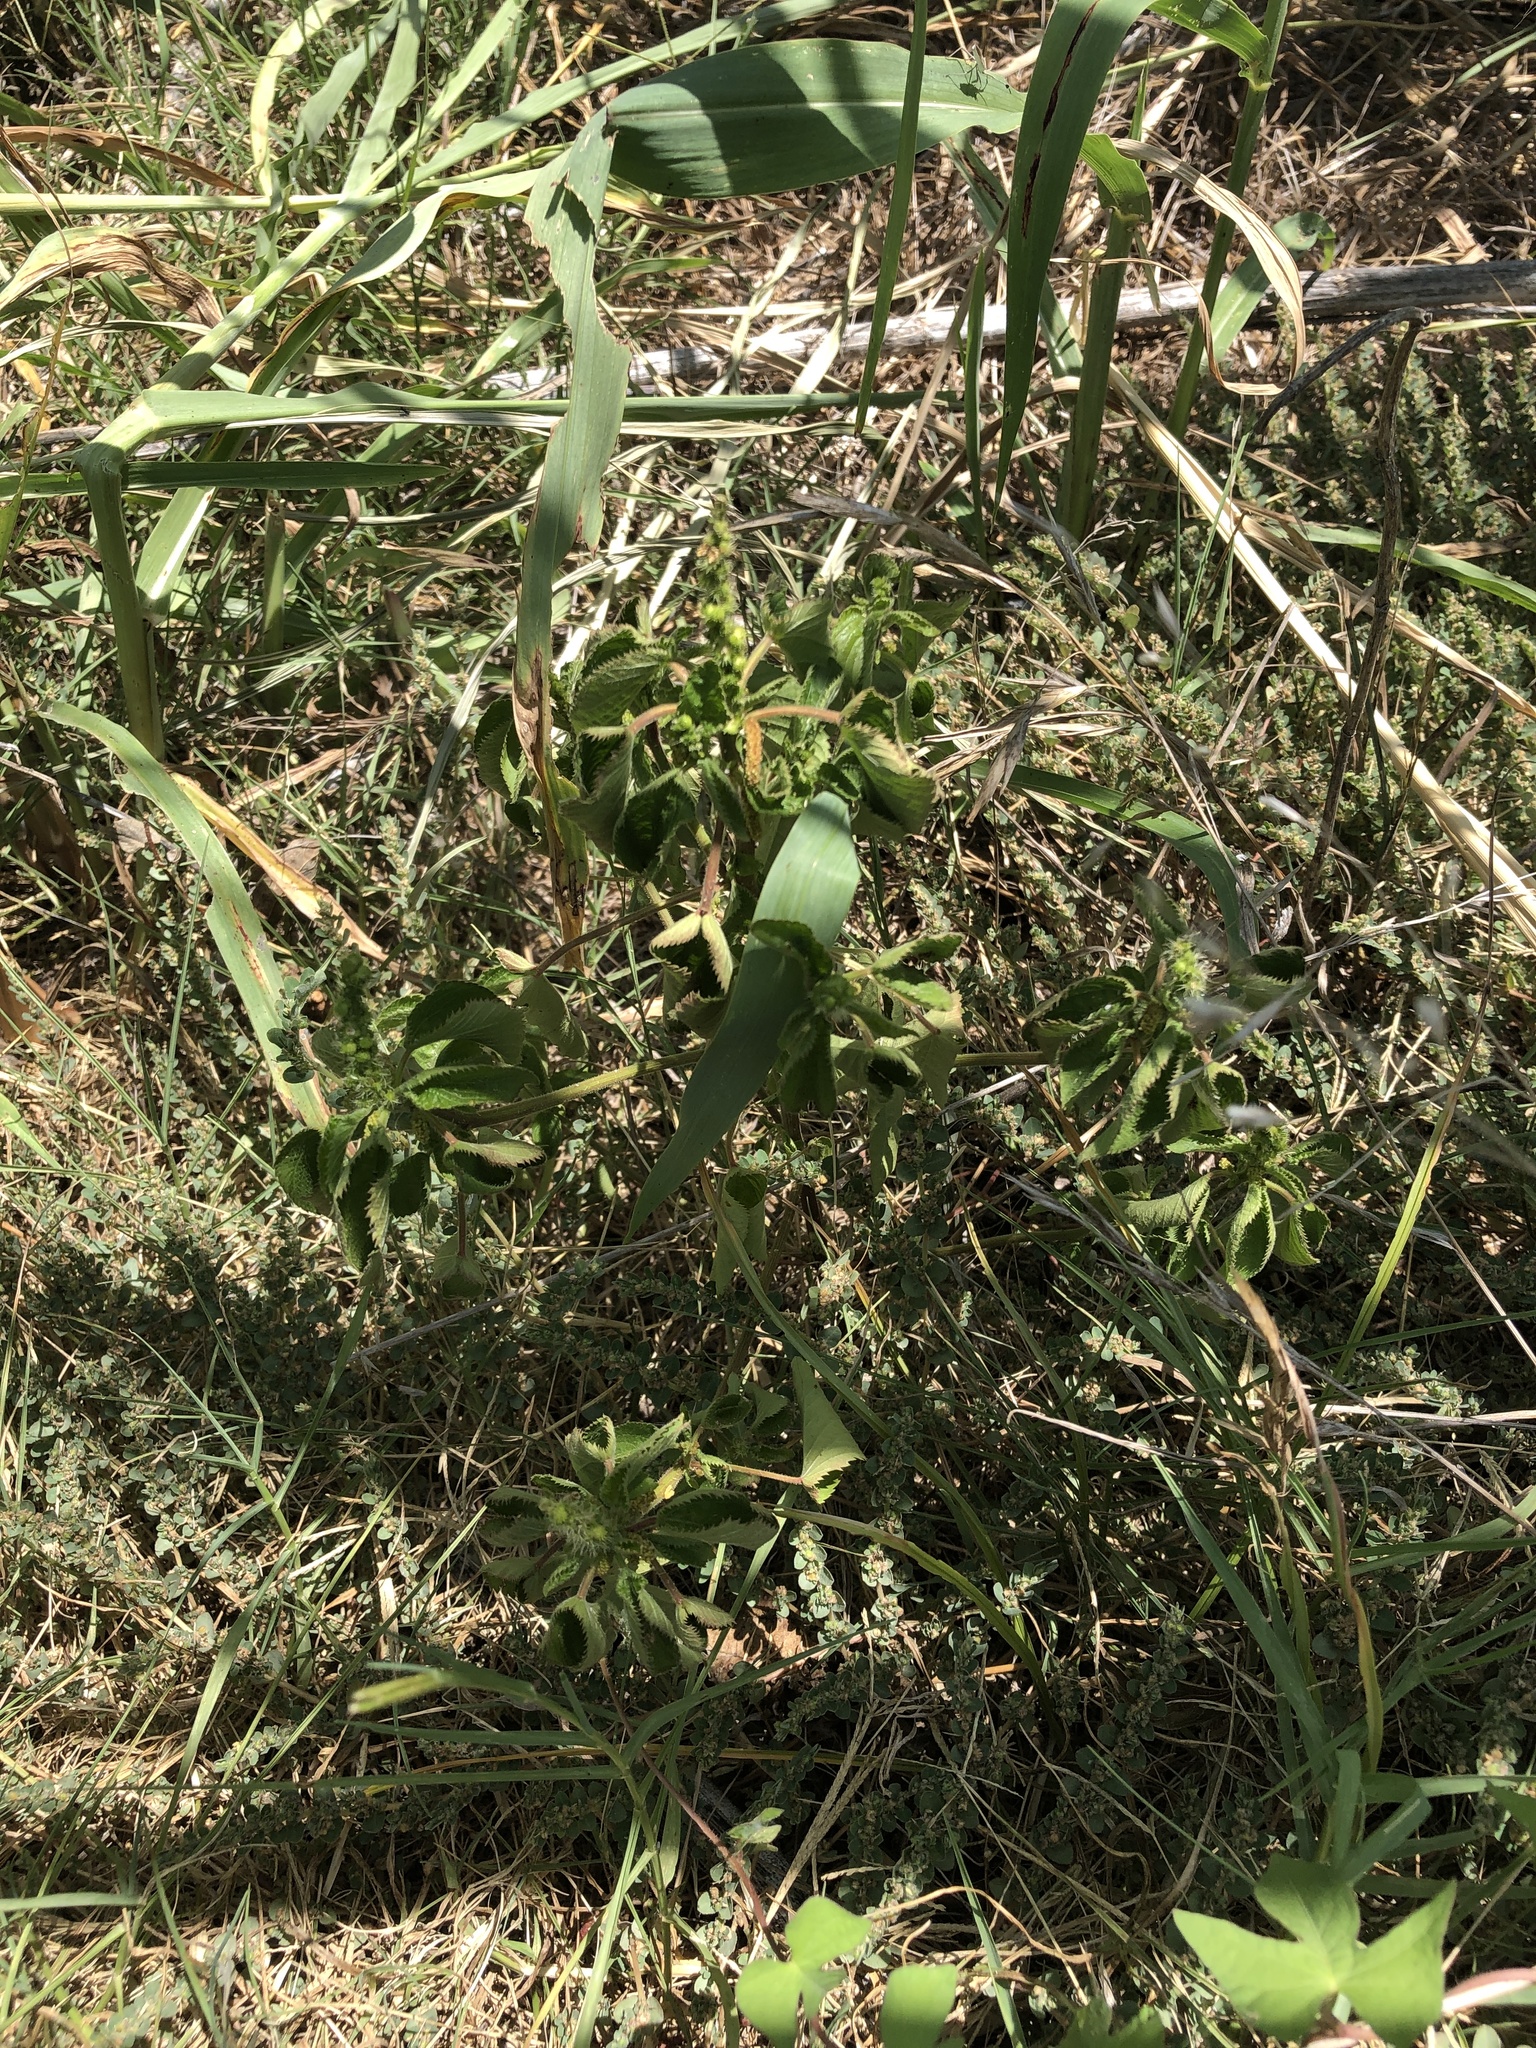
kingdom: Plantae
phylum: Tracheophyta
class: Magnoliopsida
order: Malpighiales
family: Euphorbiaceae
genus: Acalypha
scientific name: Acalypha ostryifolia
